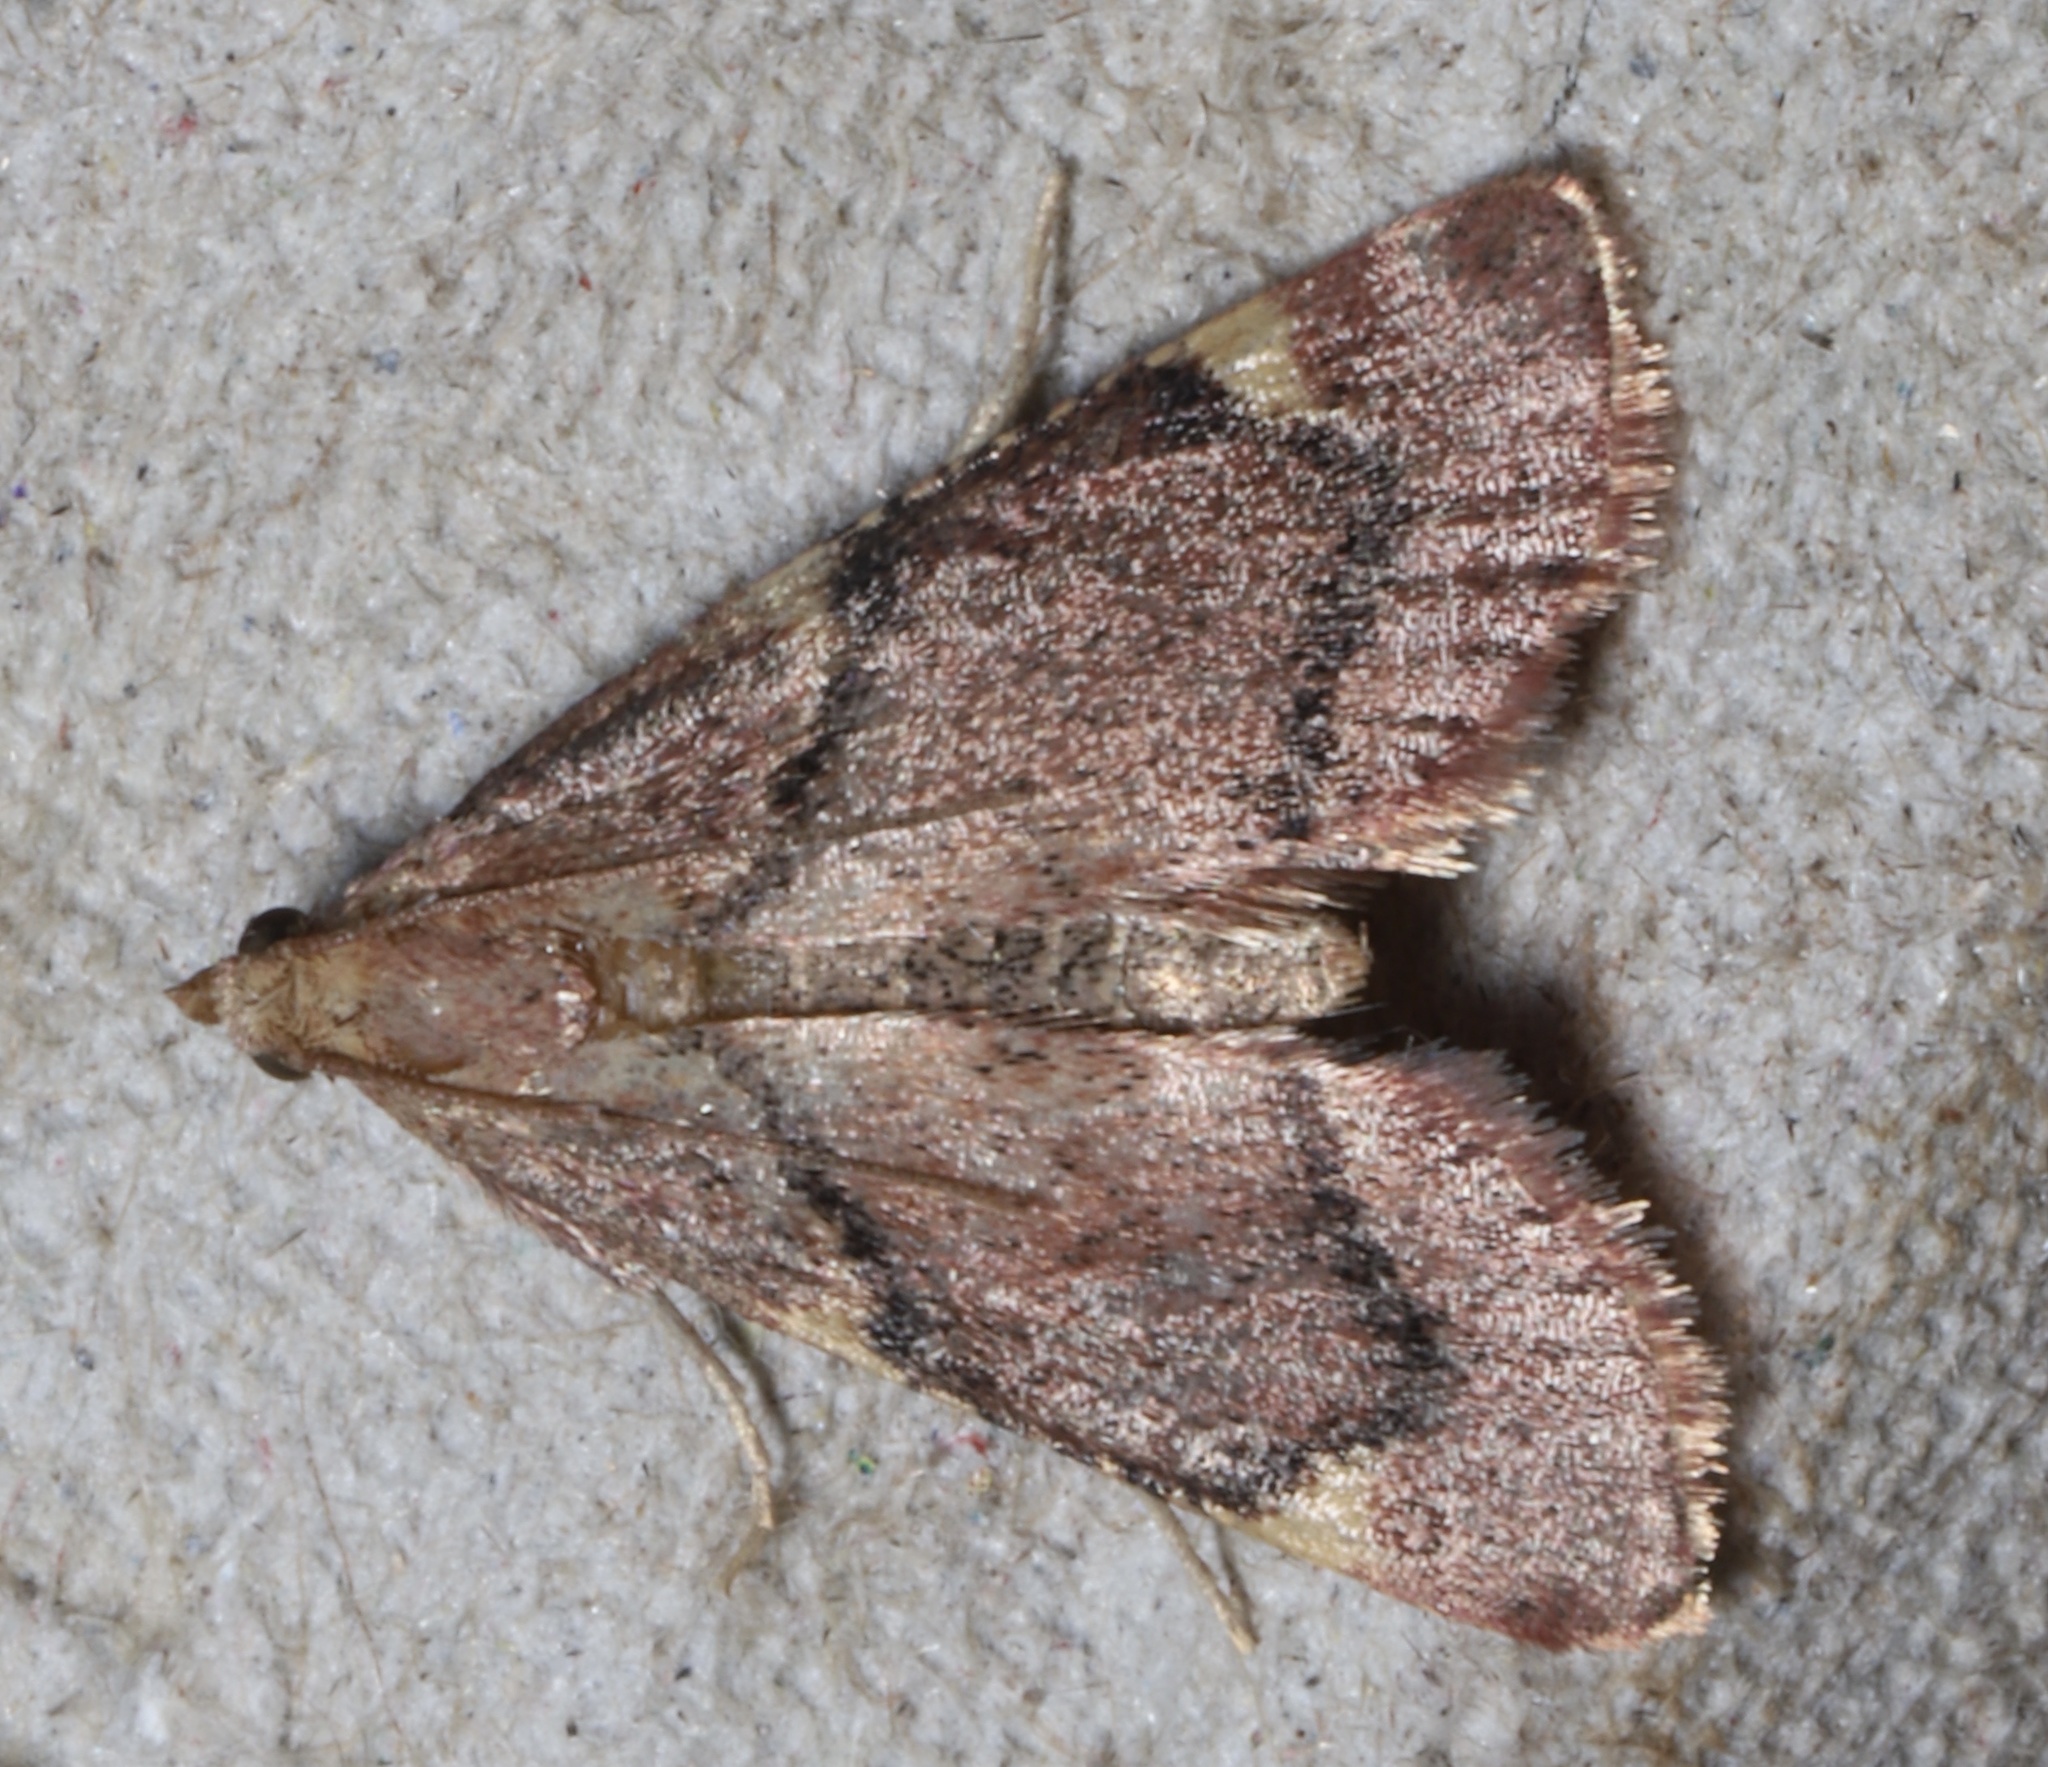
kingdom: Animalia
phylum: Arthropoda
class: Insecta
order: Lepidoptera
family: Pyralidae
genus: Hypsopygia
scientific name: Hypsopygia intermedialis
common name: Red-shawled moth
